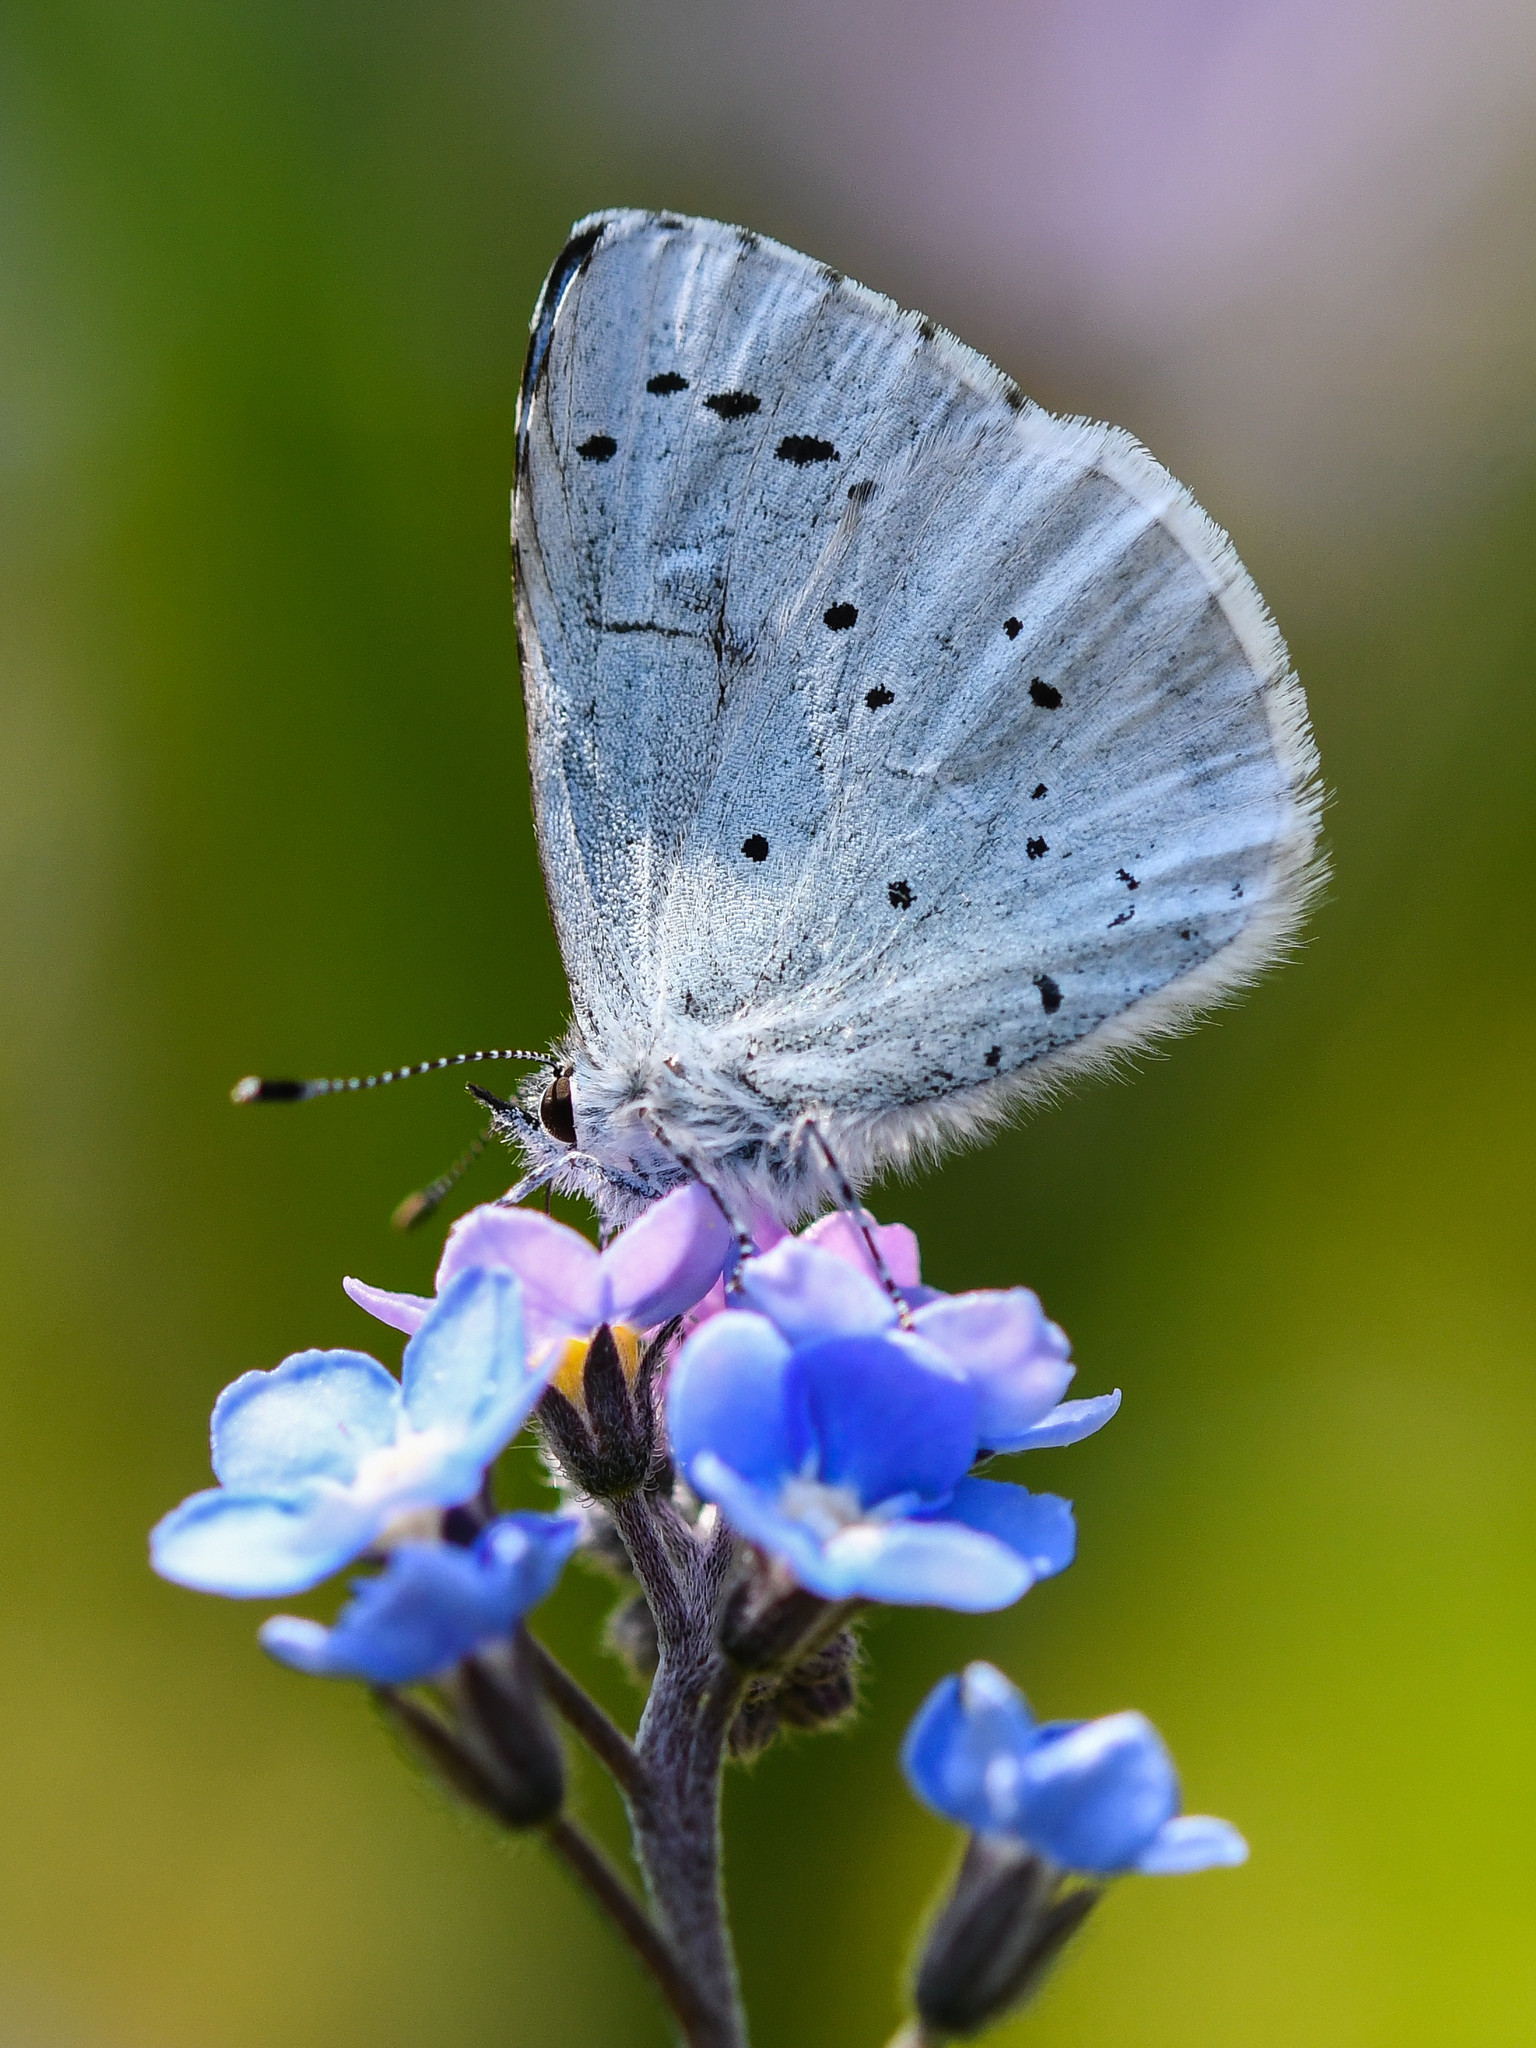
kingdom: Animalia
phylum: Arthropoda
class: Insecta
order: Lepidoptera
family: Lycaenidae
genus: Celastrina
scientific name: Celastrina argiolus
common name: Holly blue
